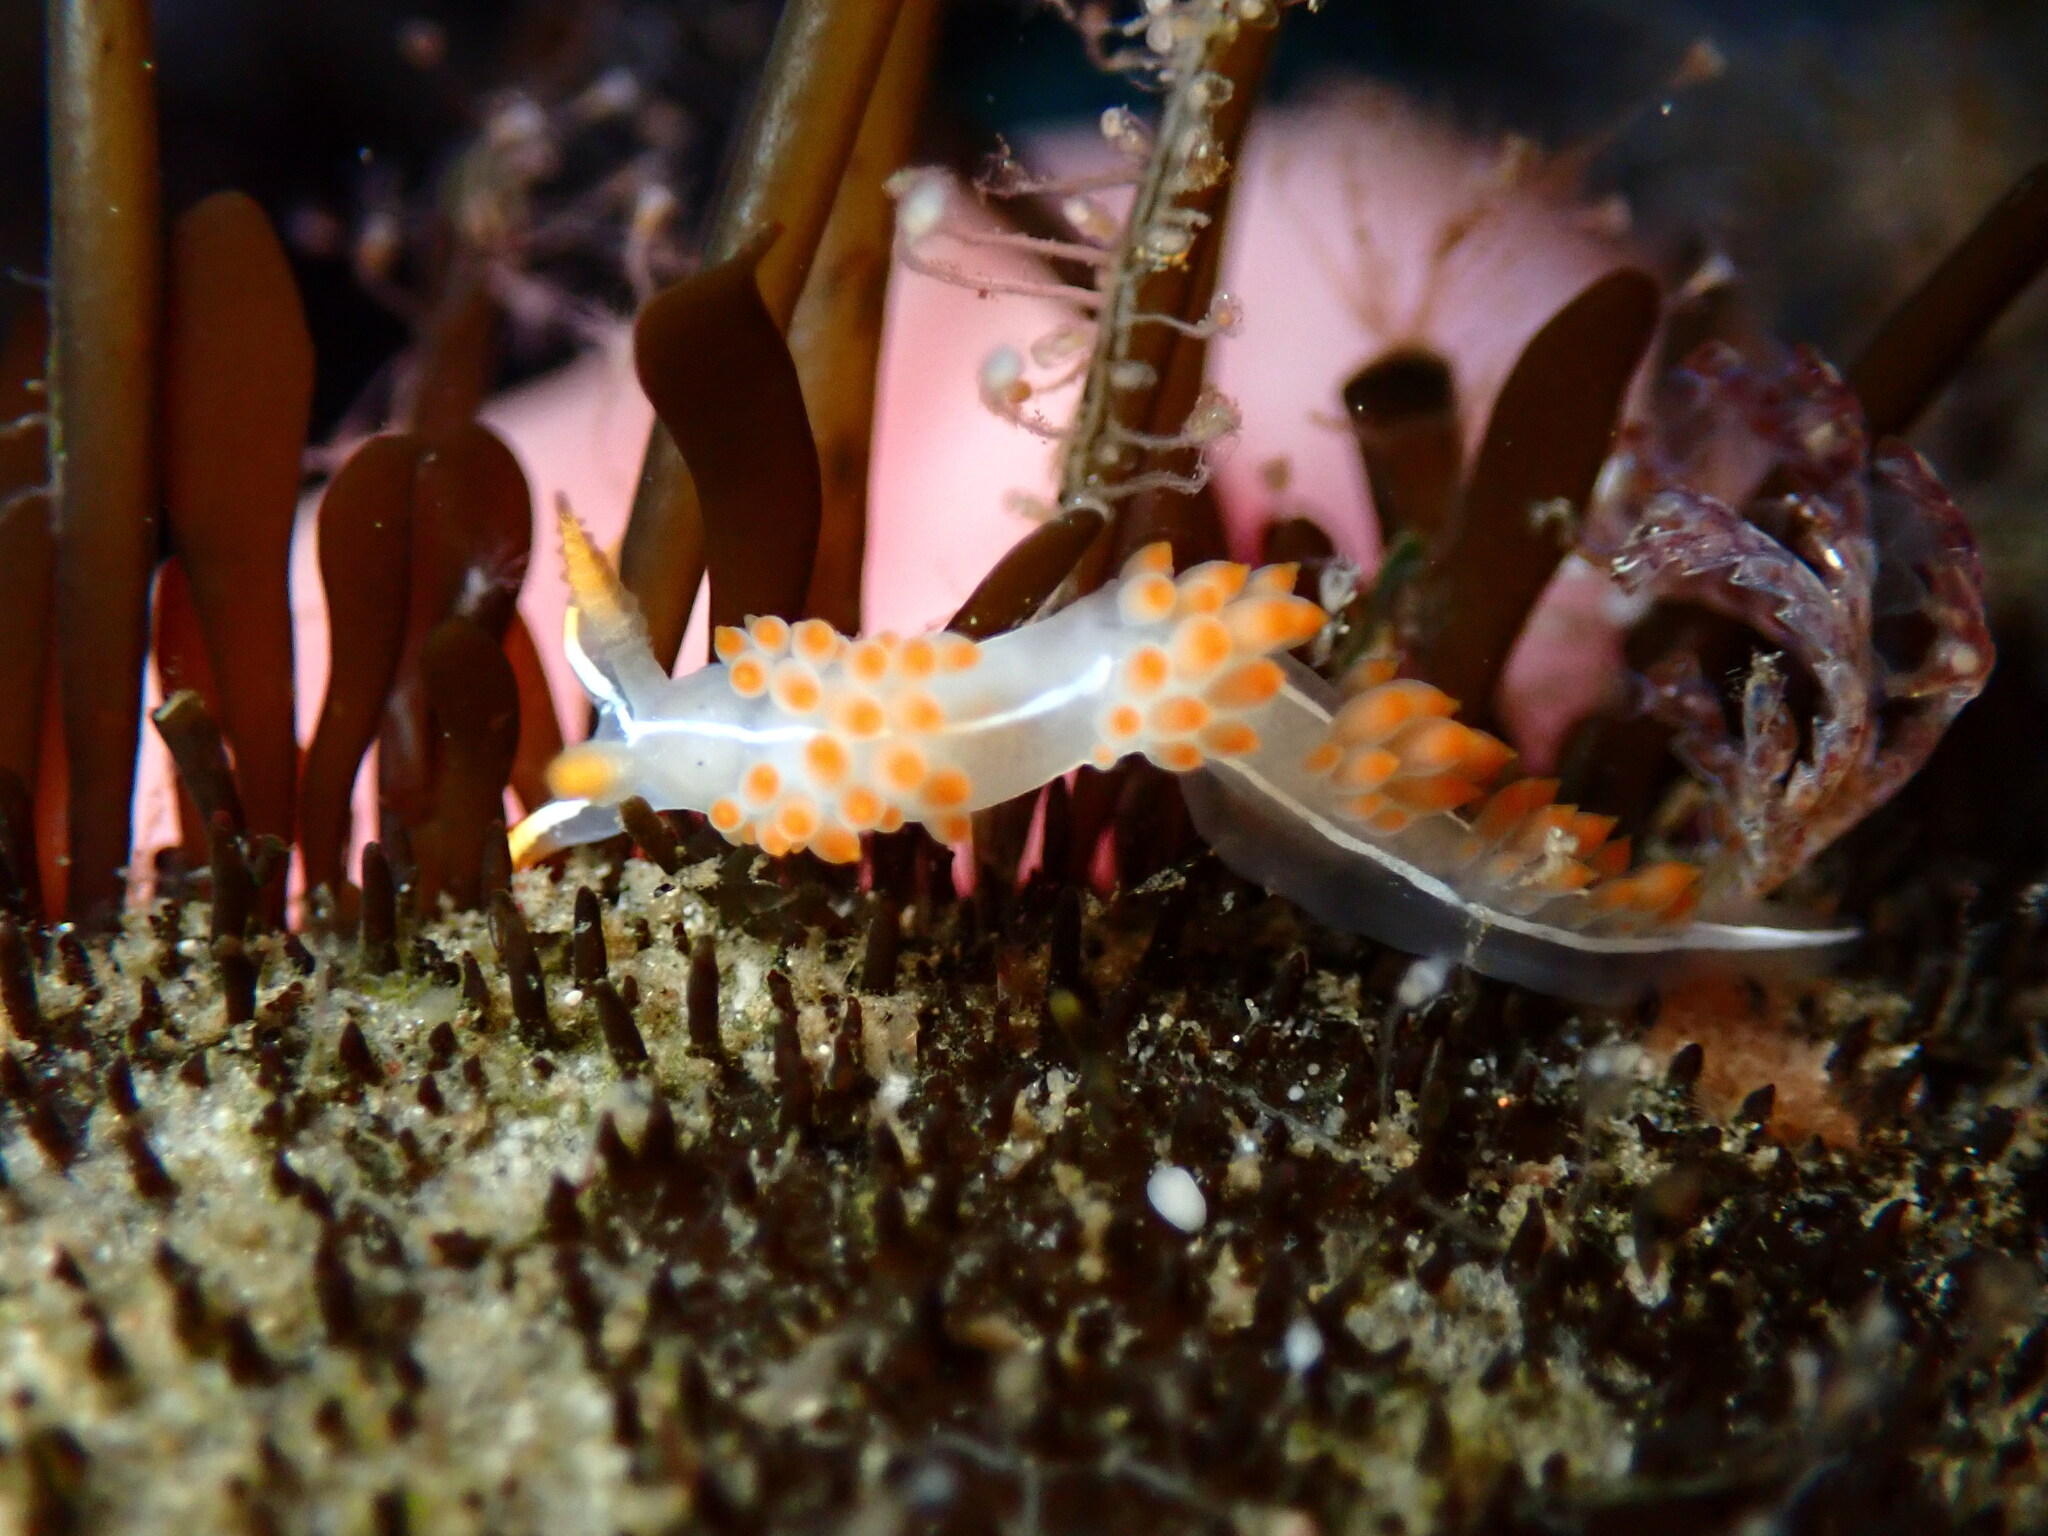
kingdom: Animalia
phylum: Mollusca
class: Gastropoda
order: Nudibranchia
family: Coryphellidae
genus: Coryphella
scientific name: Coryphella trilineata
